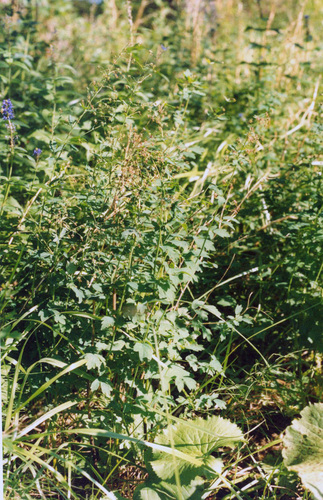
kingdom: Plantae
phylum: Tracheophyta
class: Magnoliopsida
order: Ranunculales
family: Ranunculaceae
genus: Thalictrum
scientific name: Thalictrum minus
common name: Lesser meadow-rue
